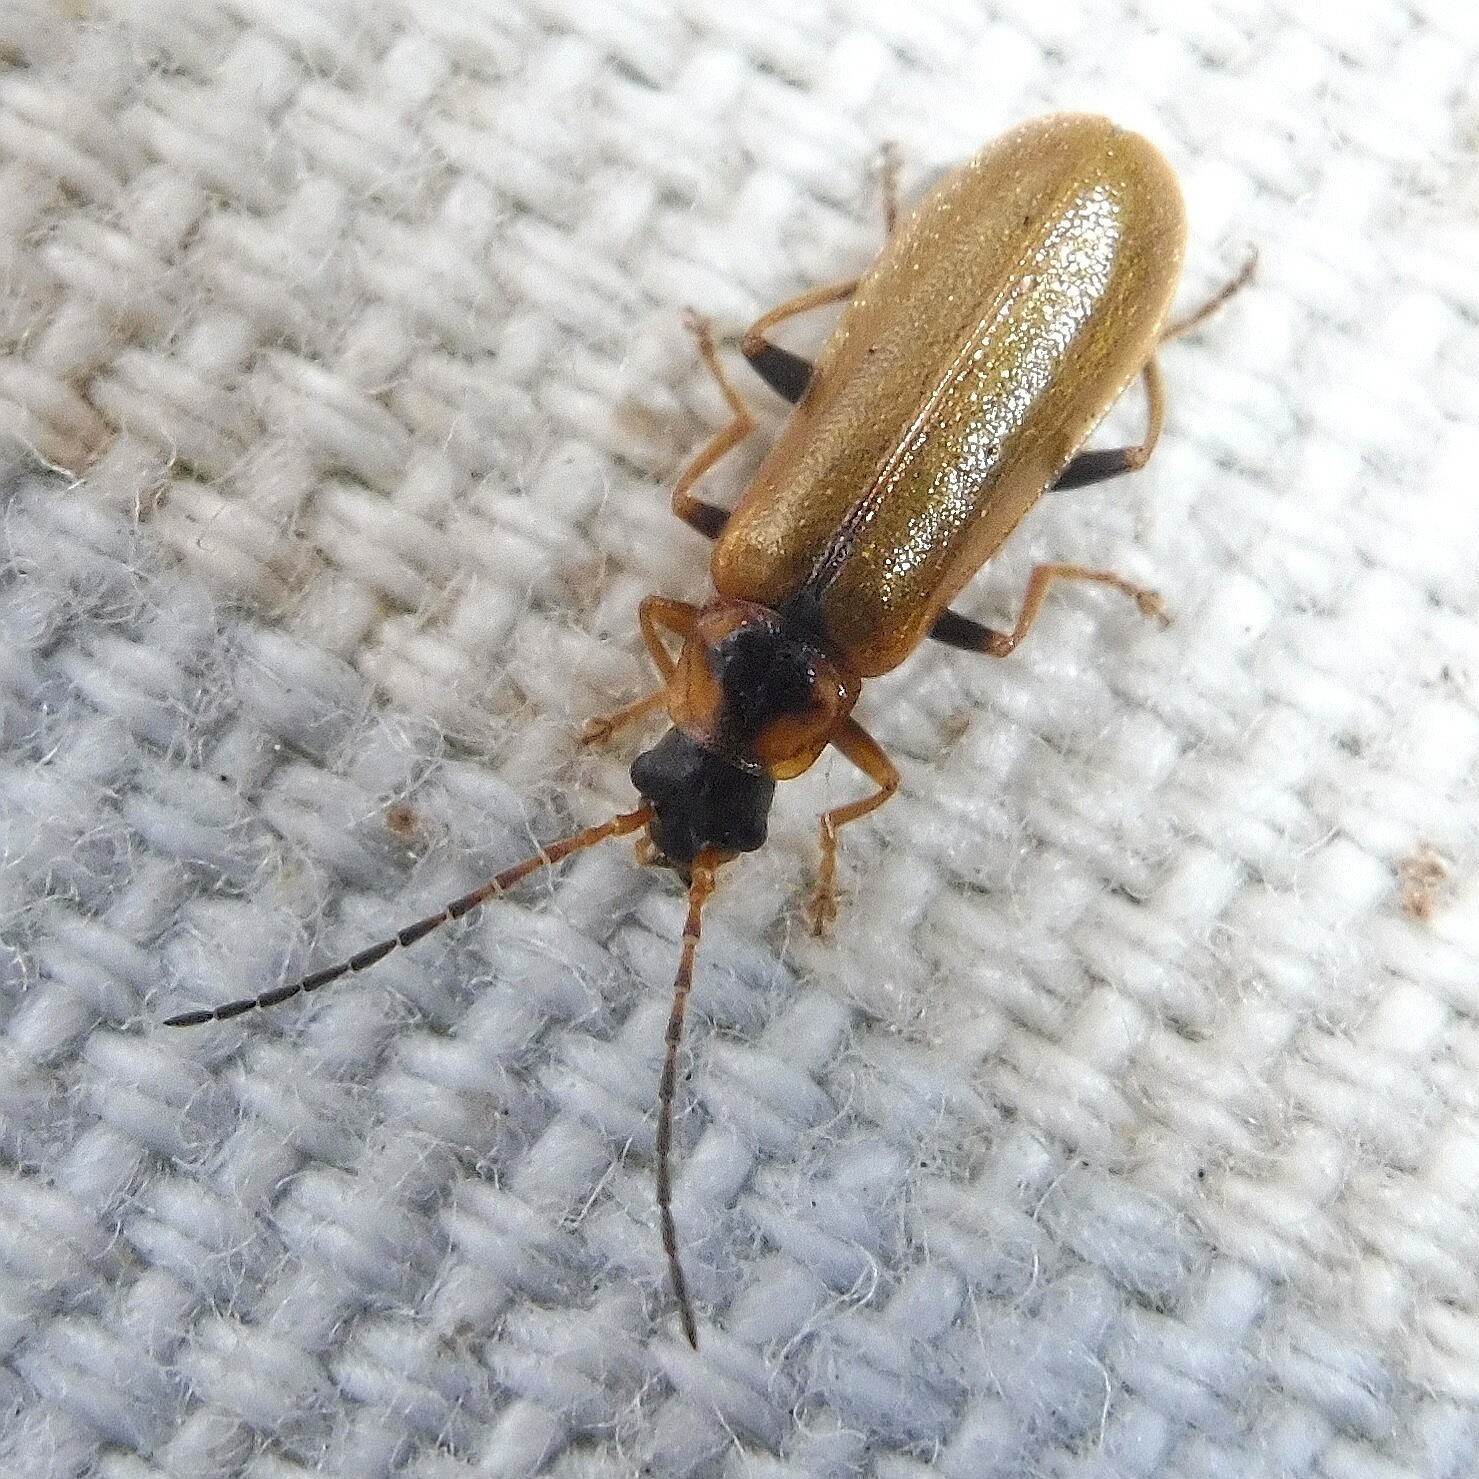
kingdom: Animalia
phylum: Arthropoda
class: Insecta
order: Coleoptera
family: Cantharidae
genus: Rhagonycha
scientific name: Rhagonycha nigriventris
